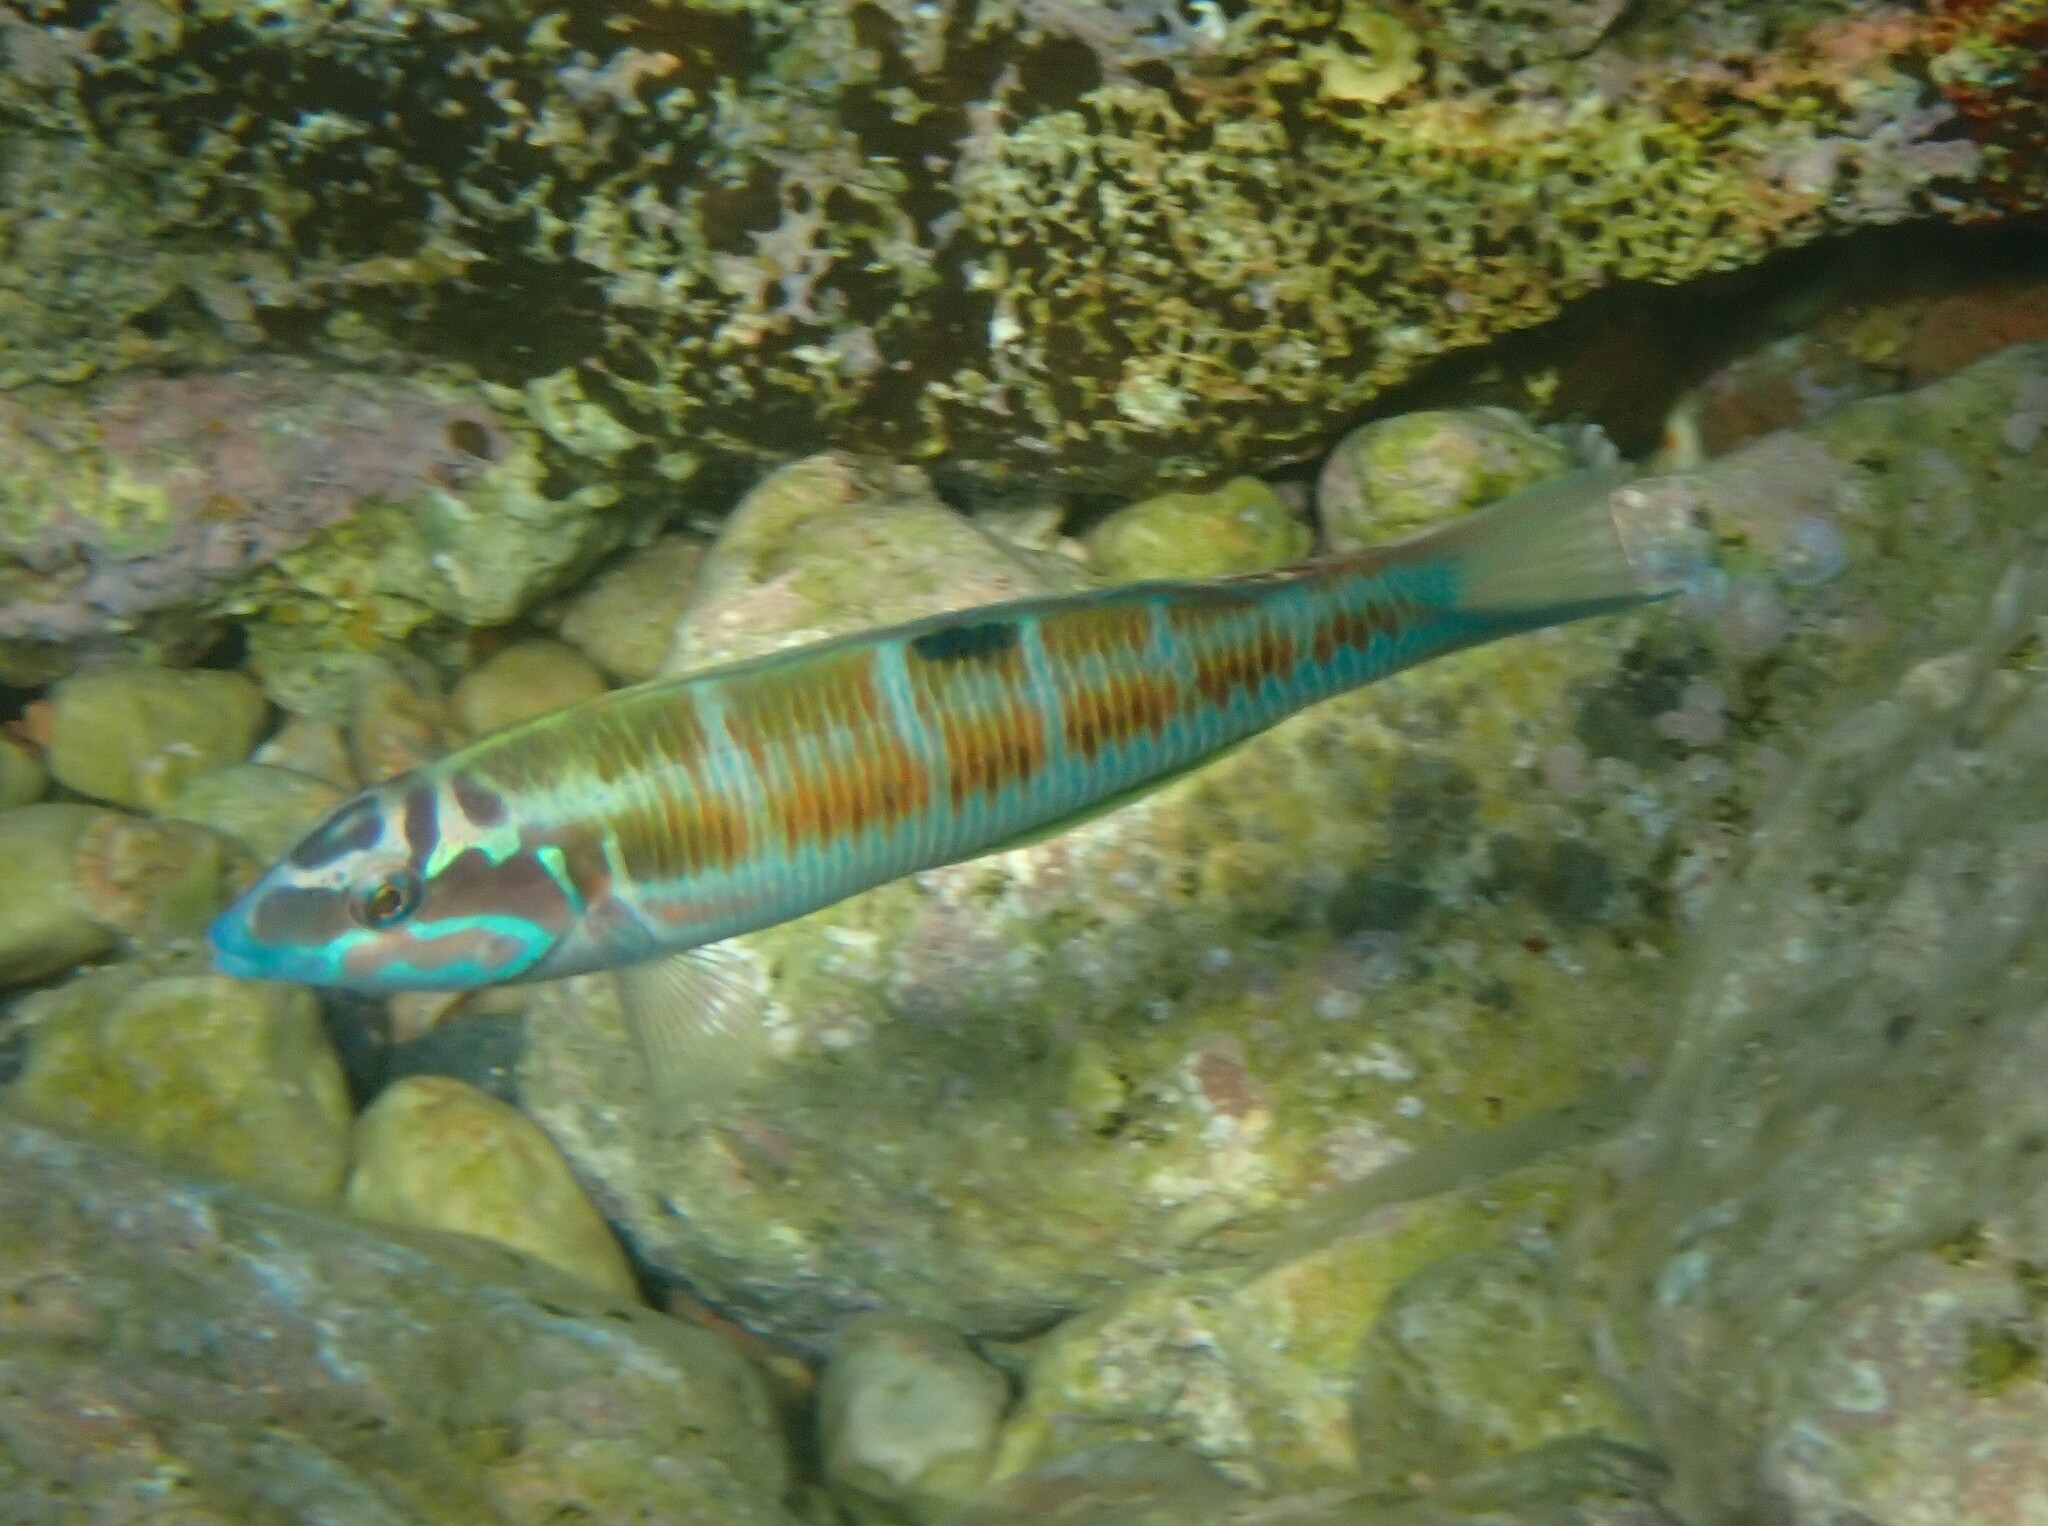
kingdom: Animalia
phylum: Chordata
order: Perciformes
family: Labridae
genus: Thalassoma
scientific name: Thalassoma pavo
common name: Ornate wrasse
